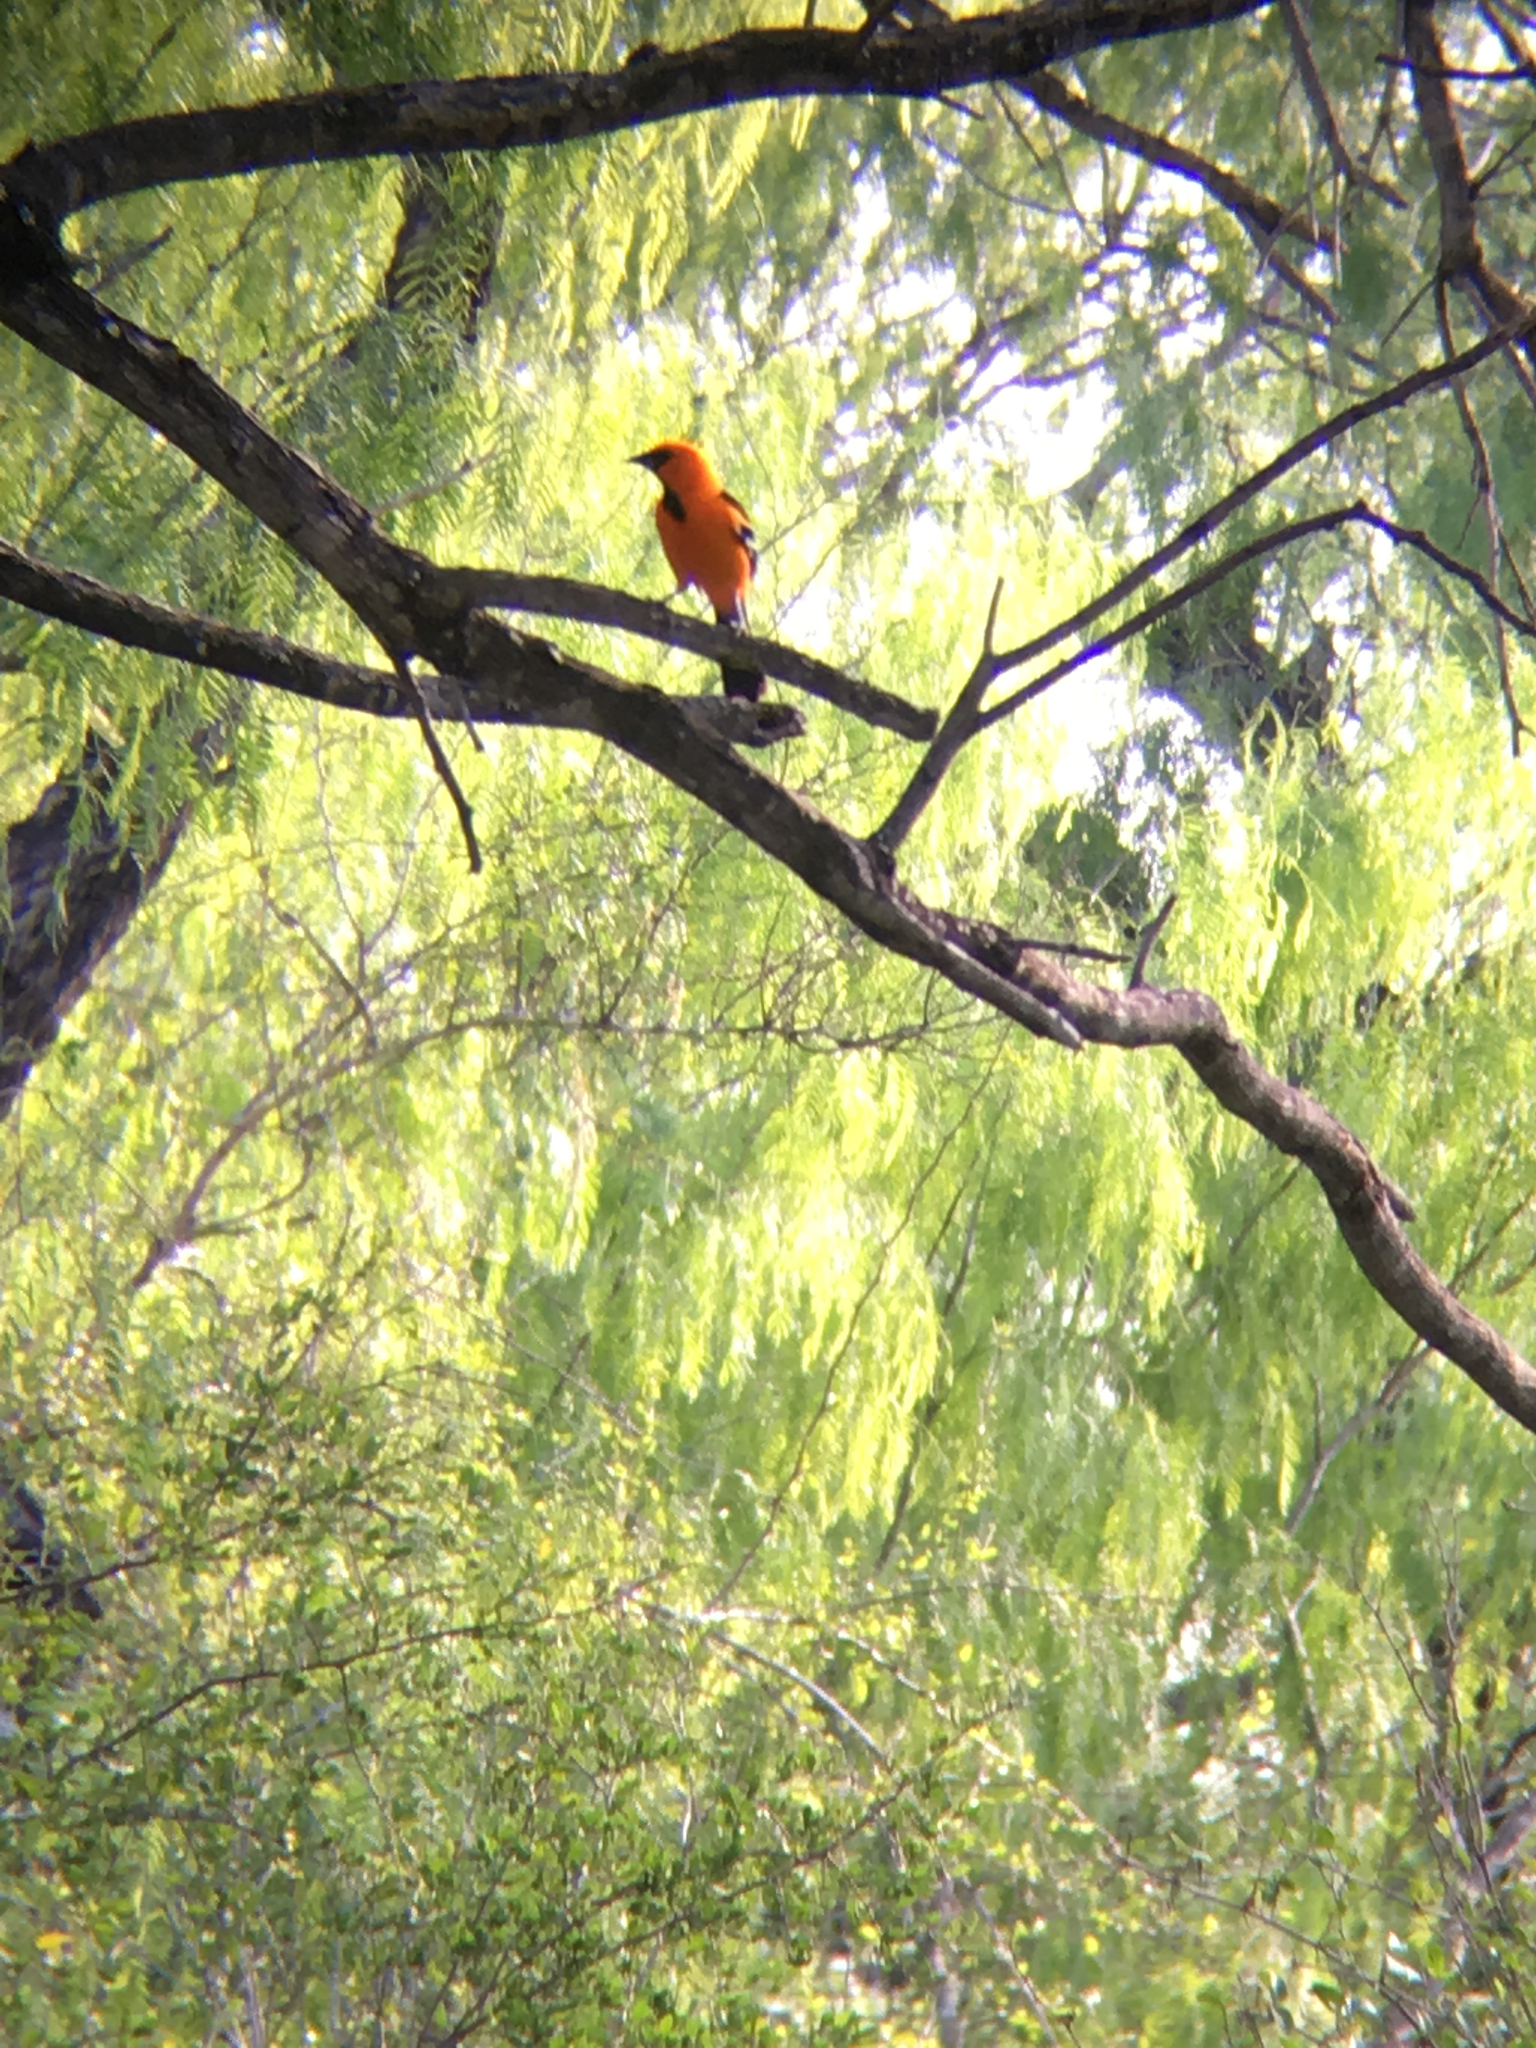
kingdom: Animalia
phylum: Chordata
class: Aves
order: Passeriformes
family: Icteridae
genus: Icterus
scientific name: Icterus gularis
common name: Altamira oriole
